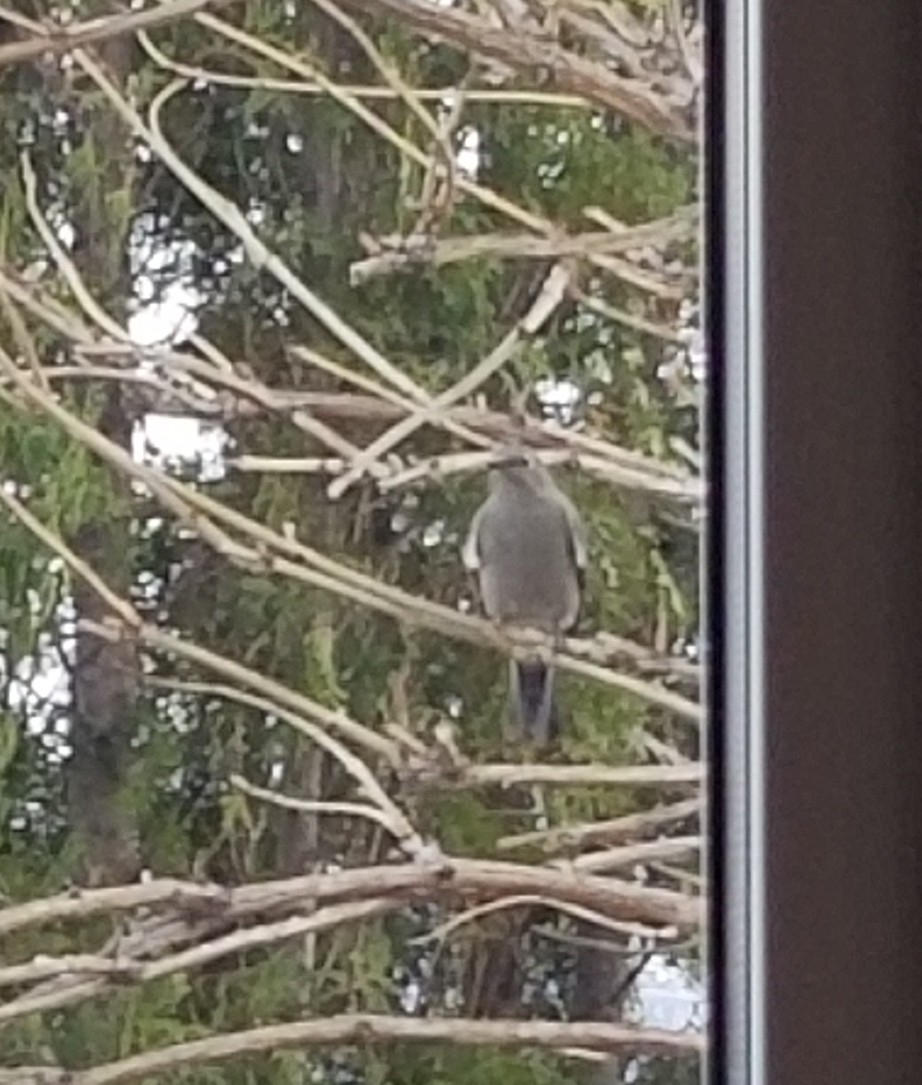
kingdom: Animalia
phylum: Chordata
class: Aves
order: Passeriformes
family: Turdidae
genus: Myadestes
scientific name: Myadestes townsendi
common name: Townsend's solitaire
